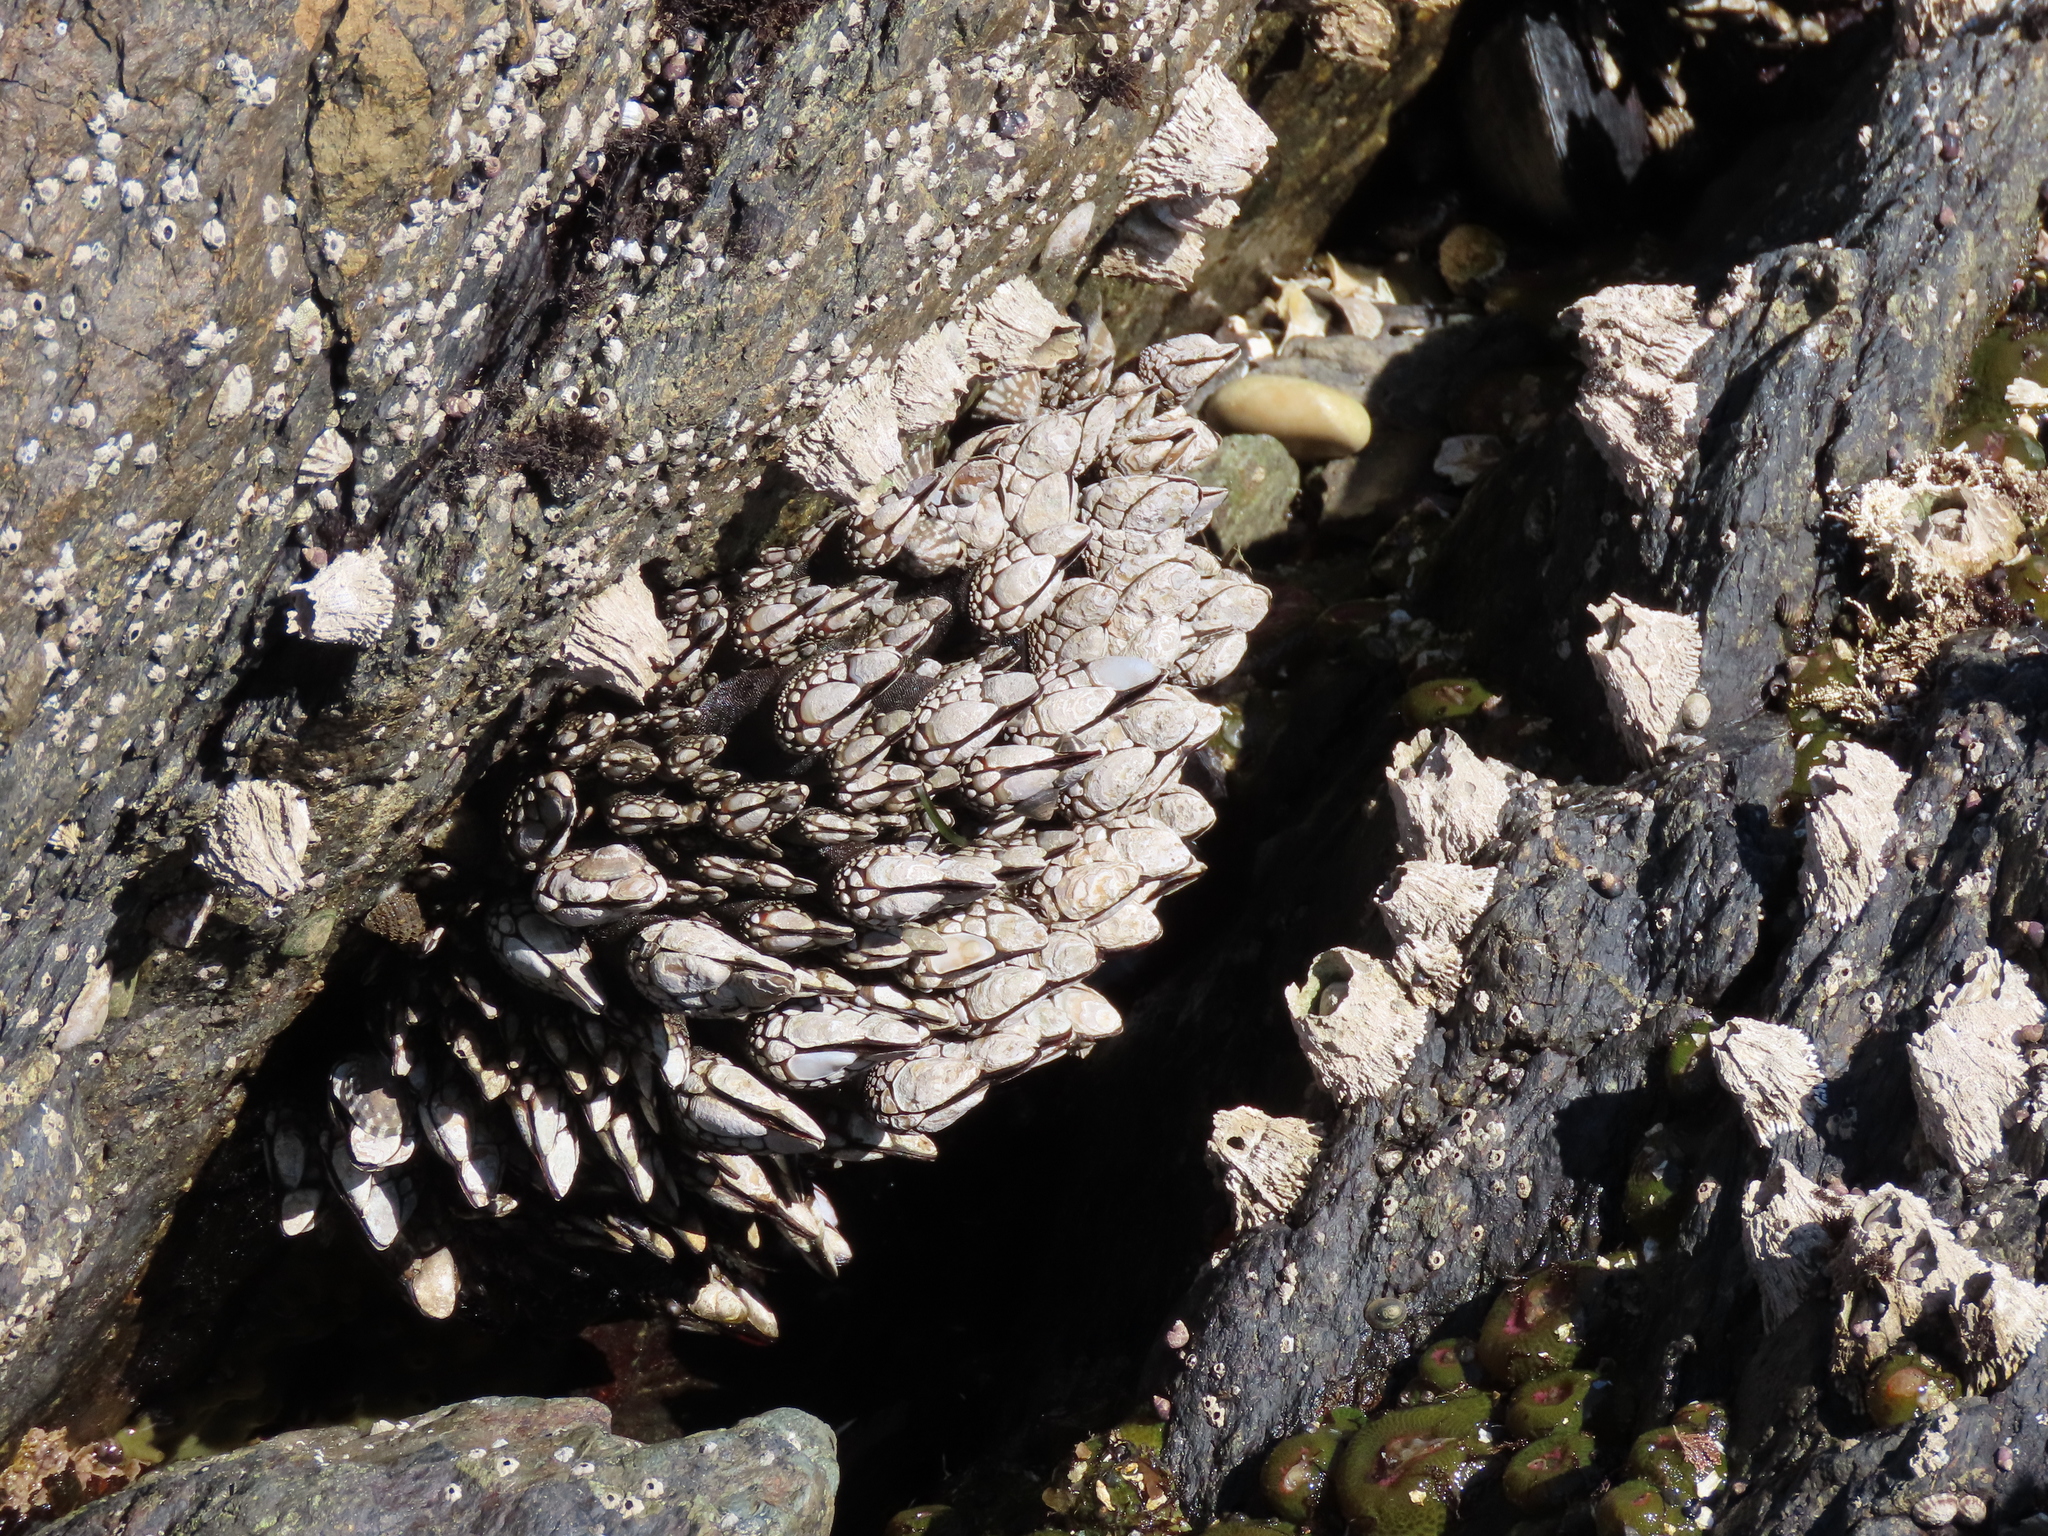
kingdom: Animalia
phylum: Arthropoda
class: Maxillopoda
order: Pedunculata
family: Pollicipedidae
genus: Pollicipes
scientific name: Pollicipes polymerus
